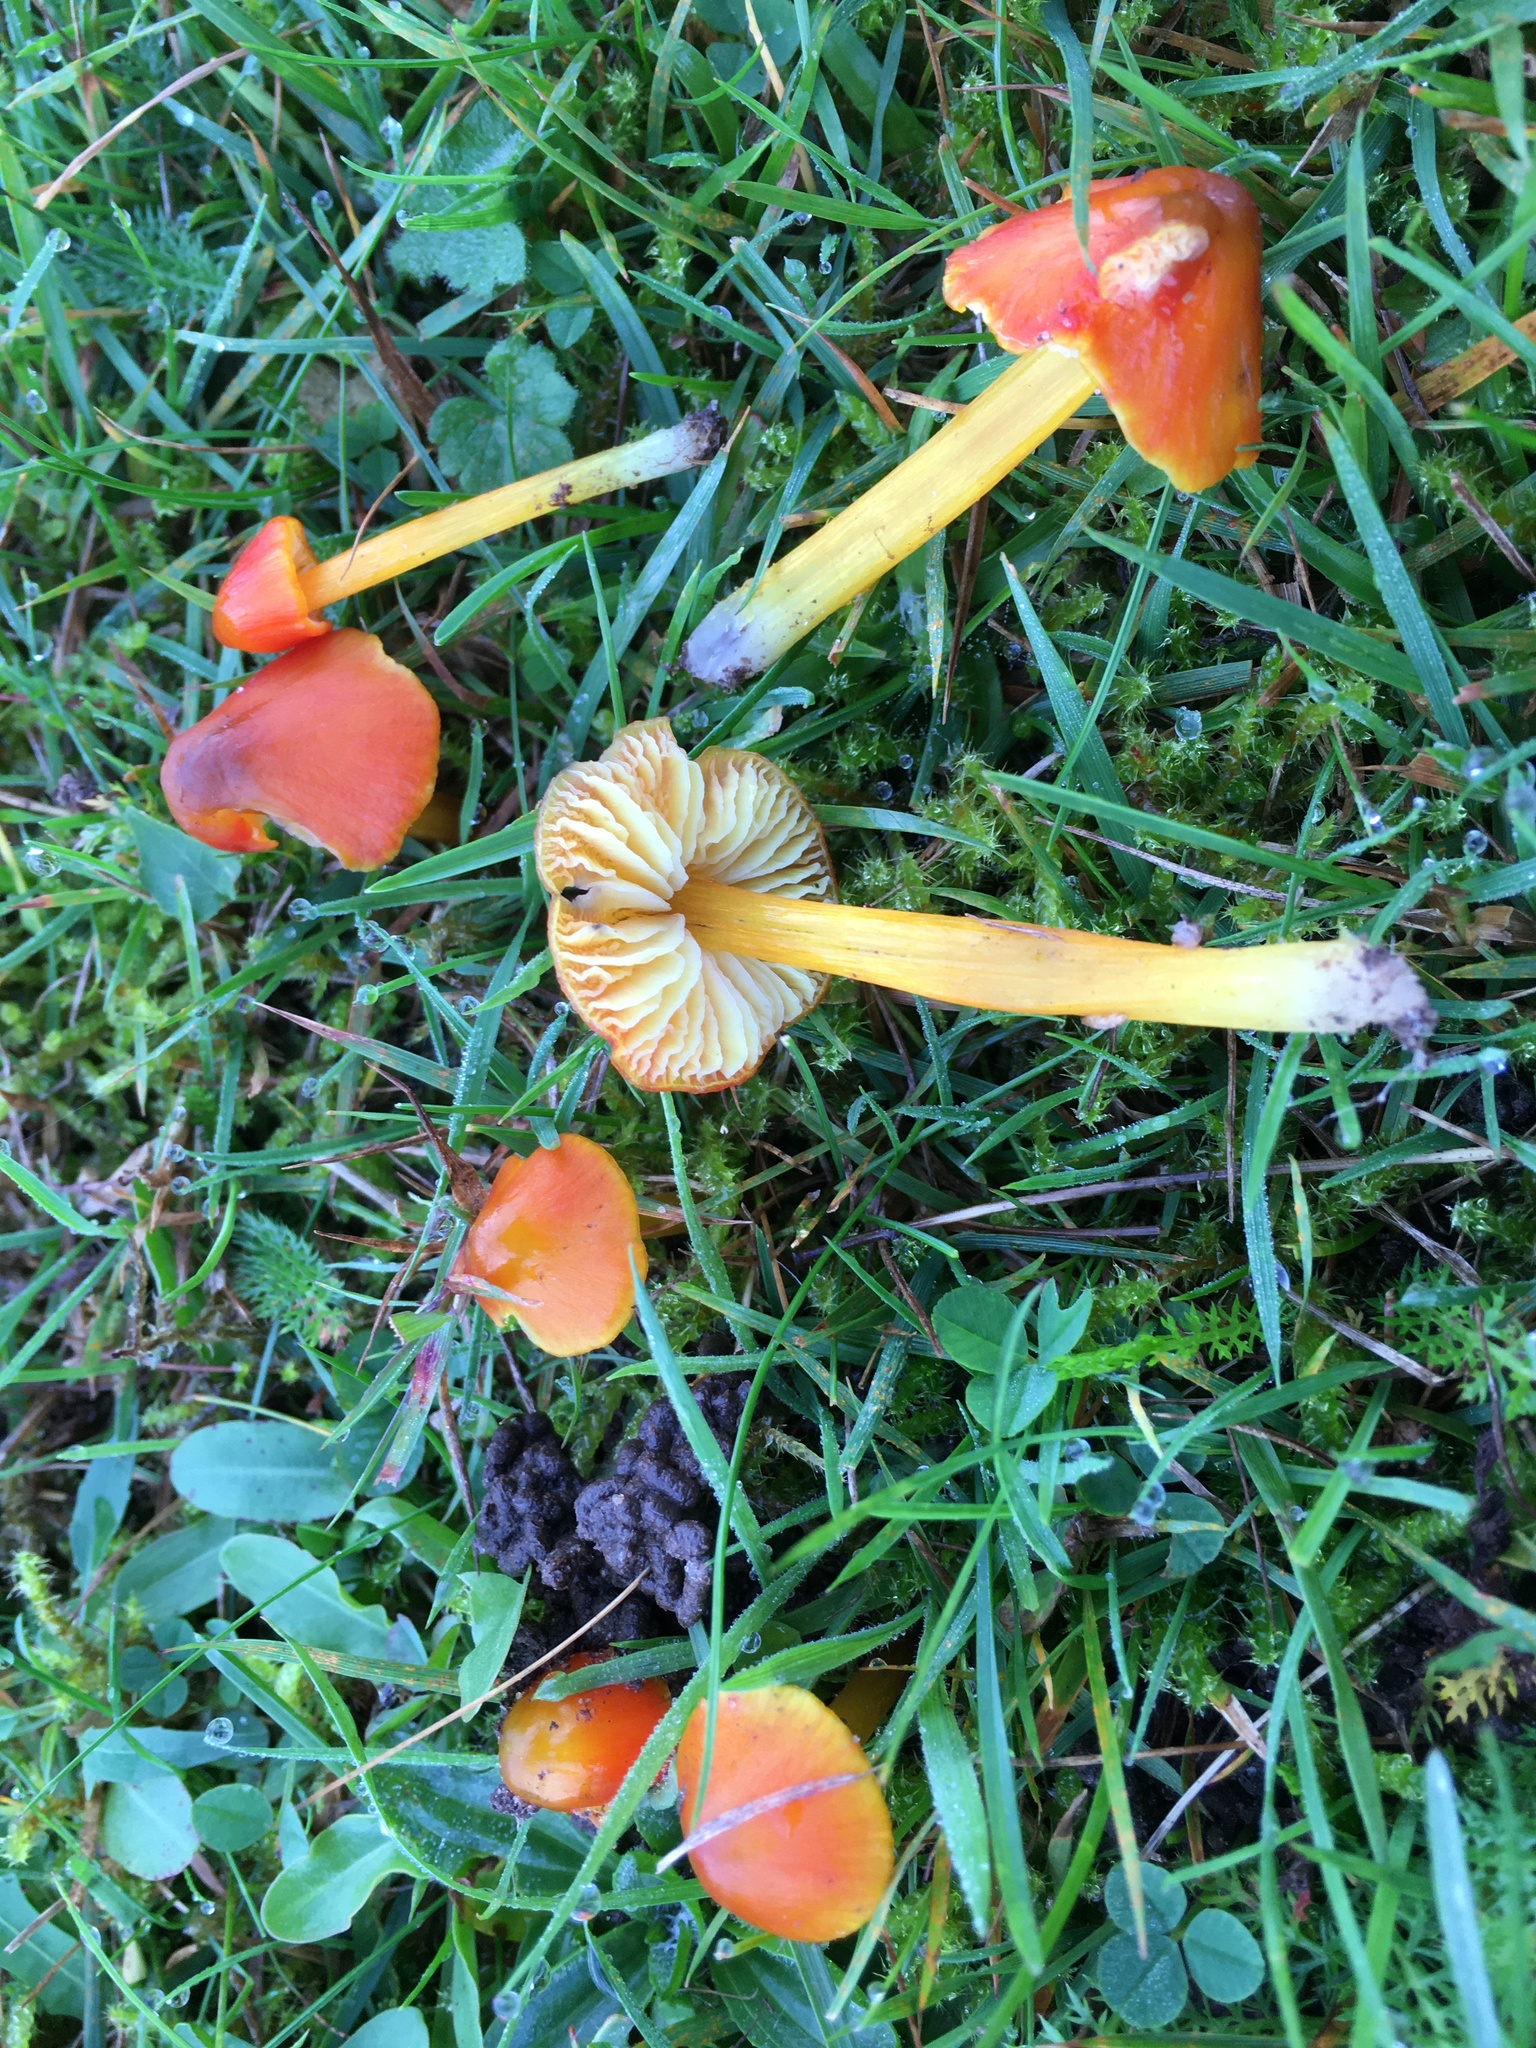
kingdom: Fungi
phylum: Basidiomycota
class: Agaricomycetes
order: Agaricales
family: Hygrophoraceae
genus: Hygrocybe
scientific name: Hygrocybe conica
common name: Blackening wax-cap
